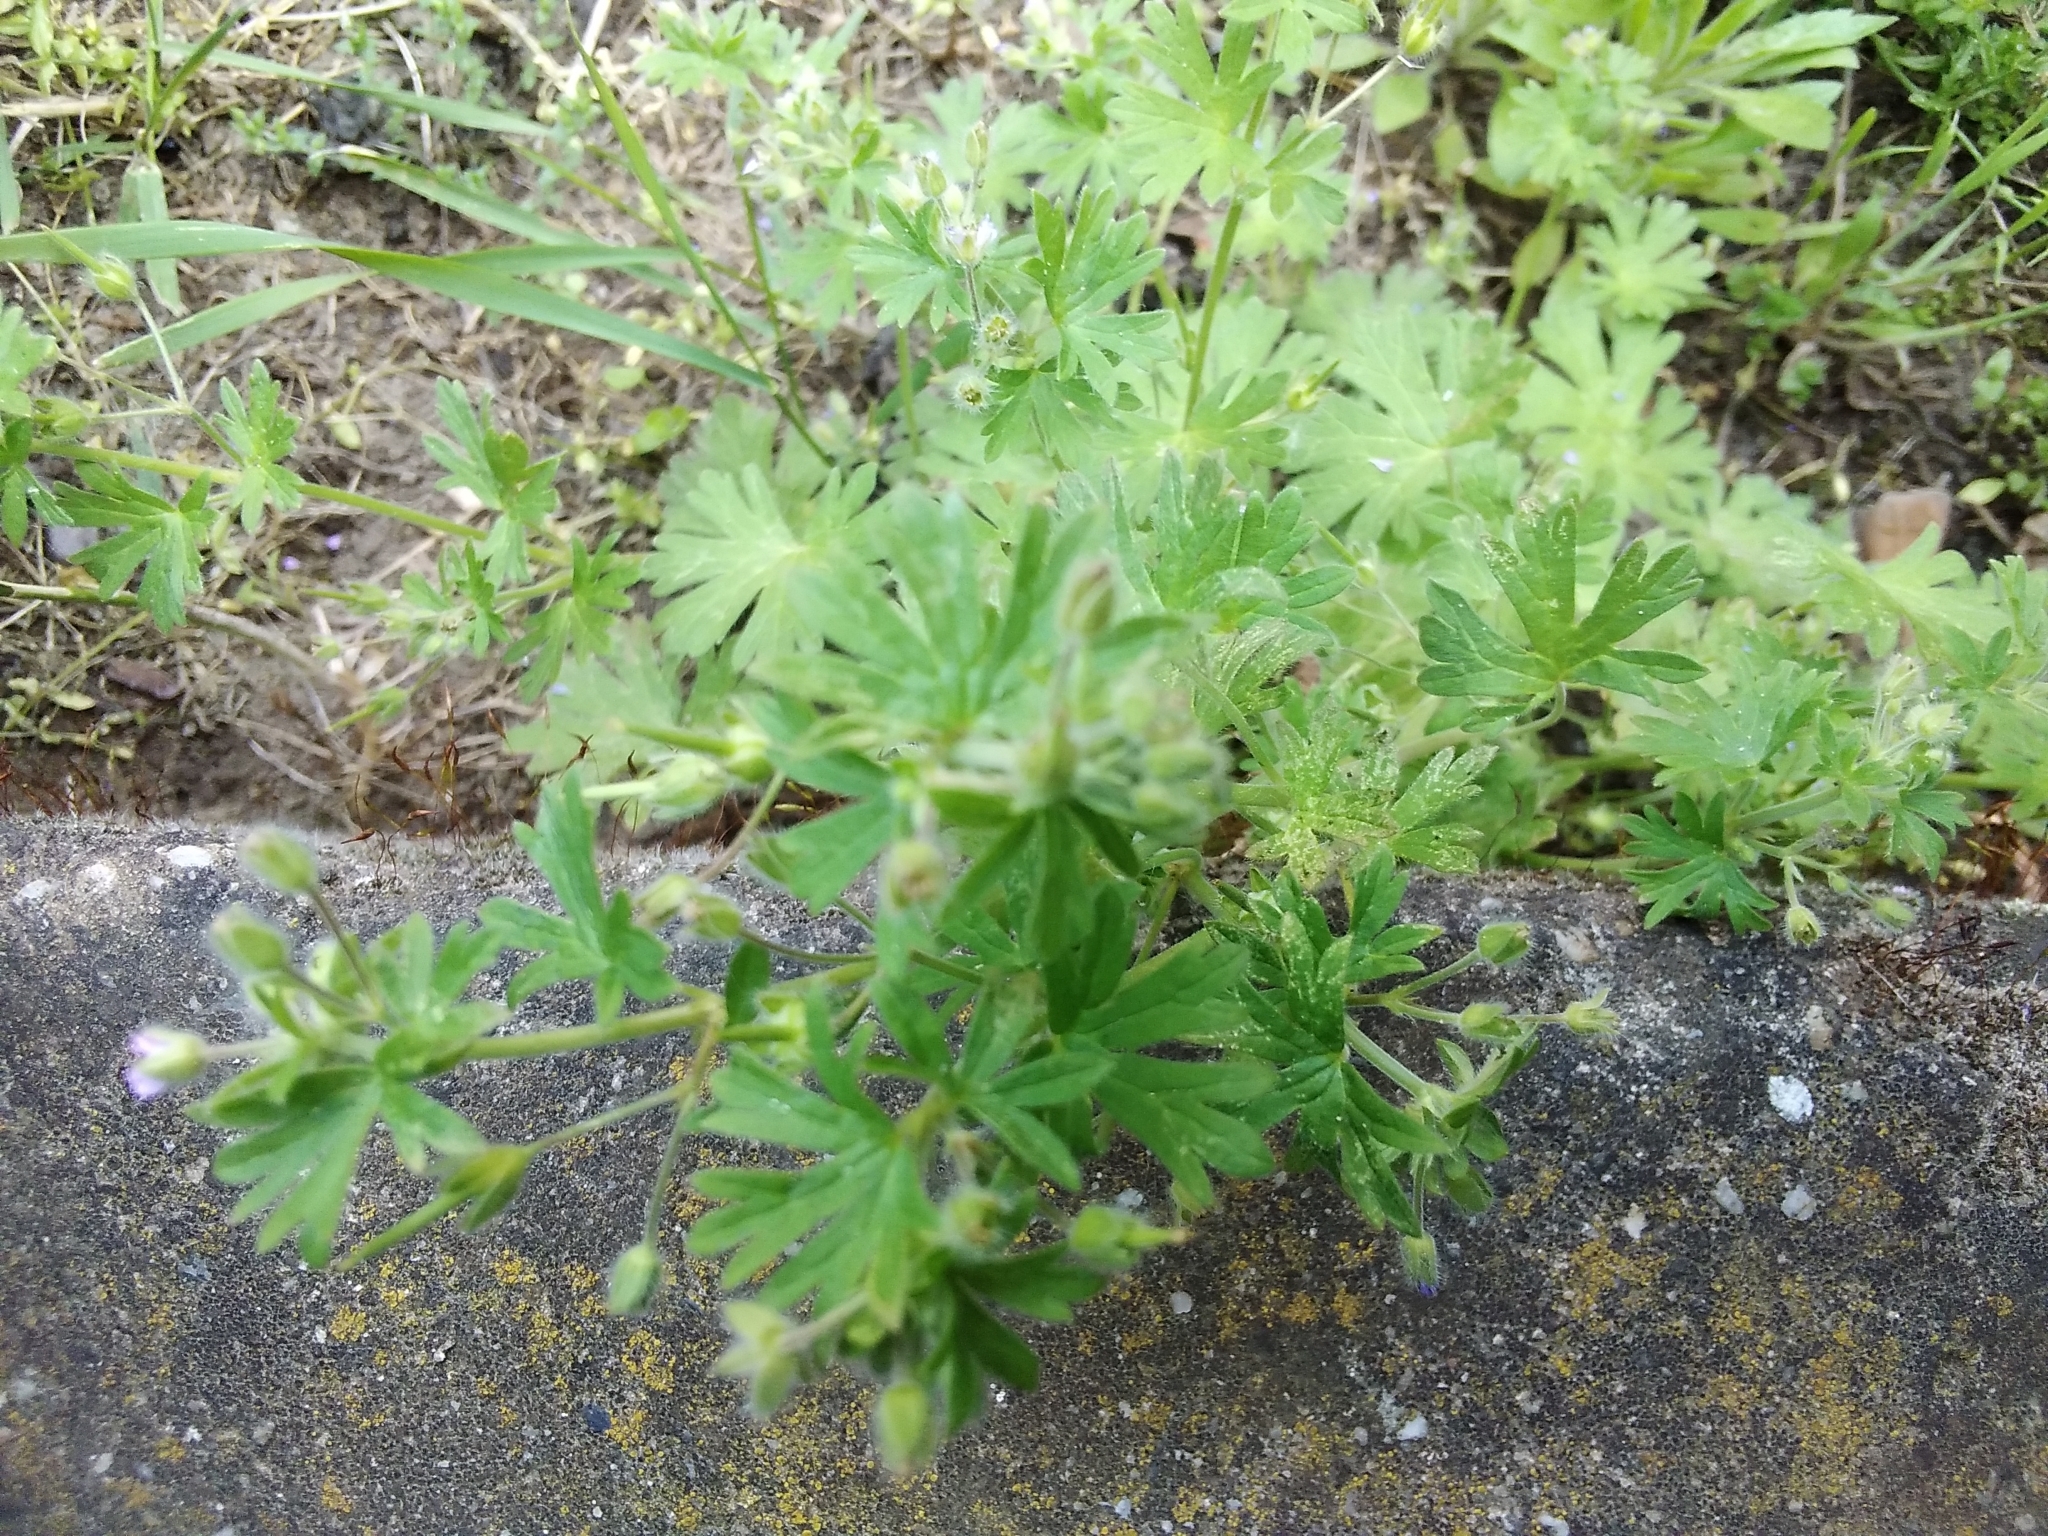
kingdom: Plantae
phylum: Tracheophyta
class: Magnoliopsida
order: Geraniales
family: Geraniaceae
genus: Geranium
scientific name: Geranium pusillum
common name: Small geranium
